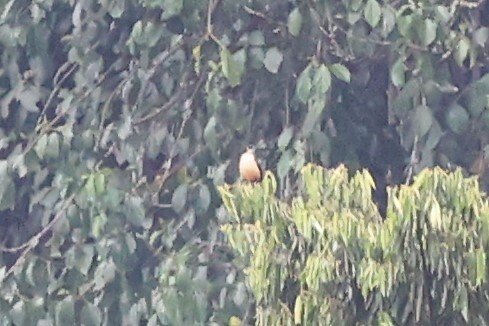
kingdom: Animalia
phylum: Chordata
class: Aves
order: Passeriformes
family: Sturnidae
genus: Poeoptera
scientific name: Poeoptera sharpii
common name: Sharpe's starling
